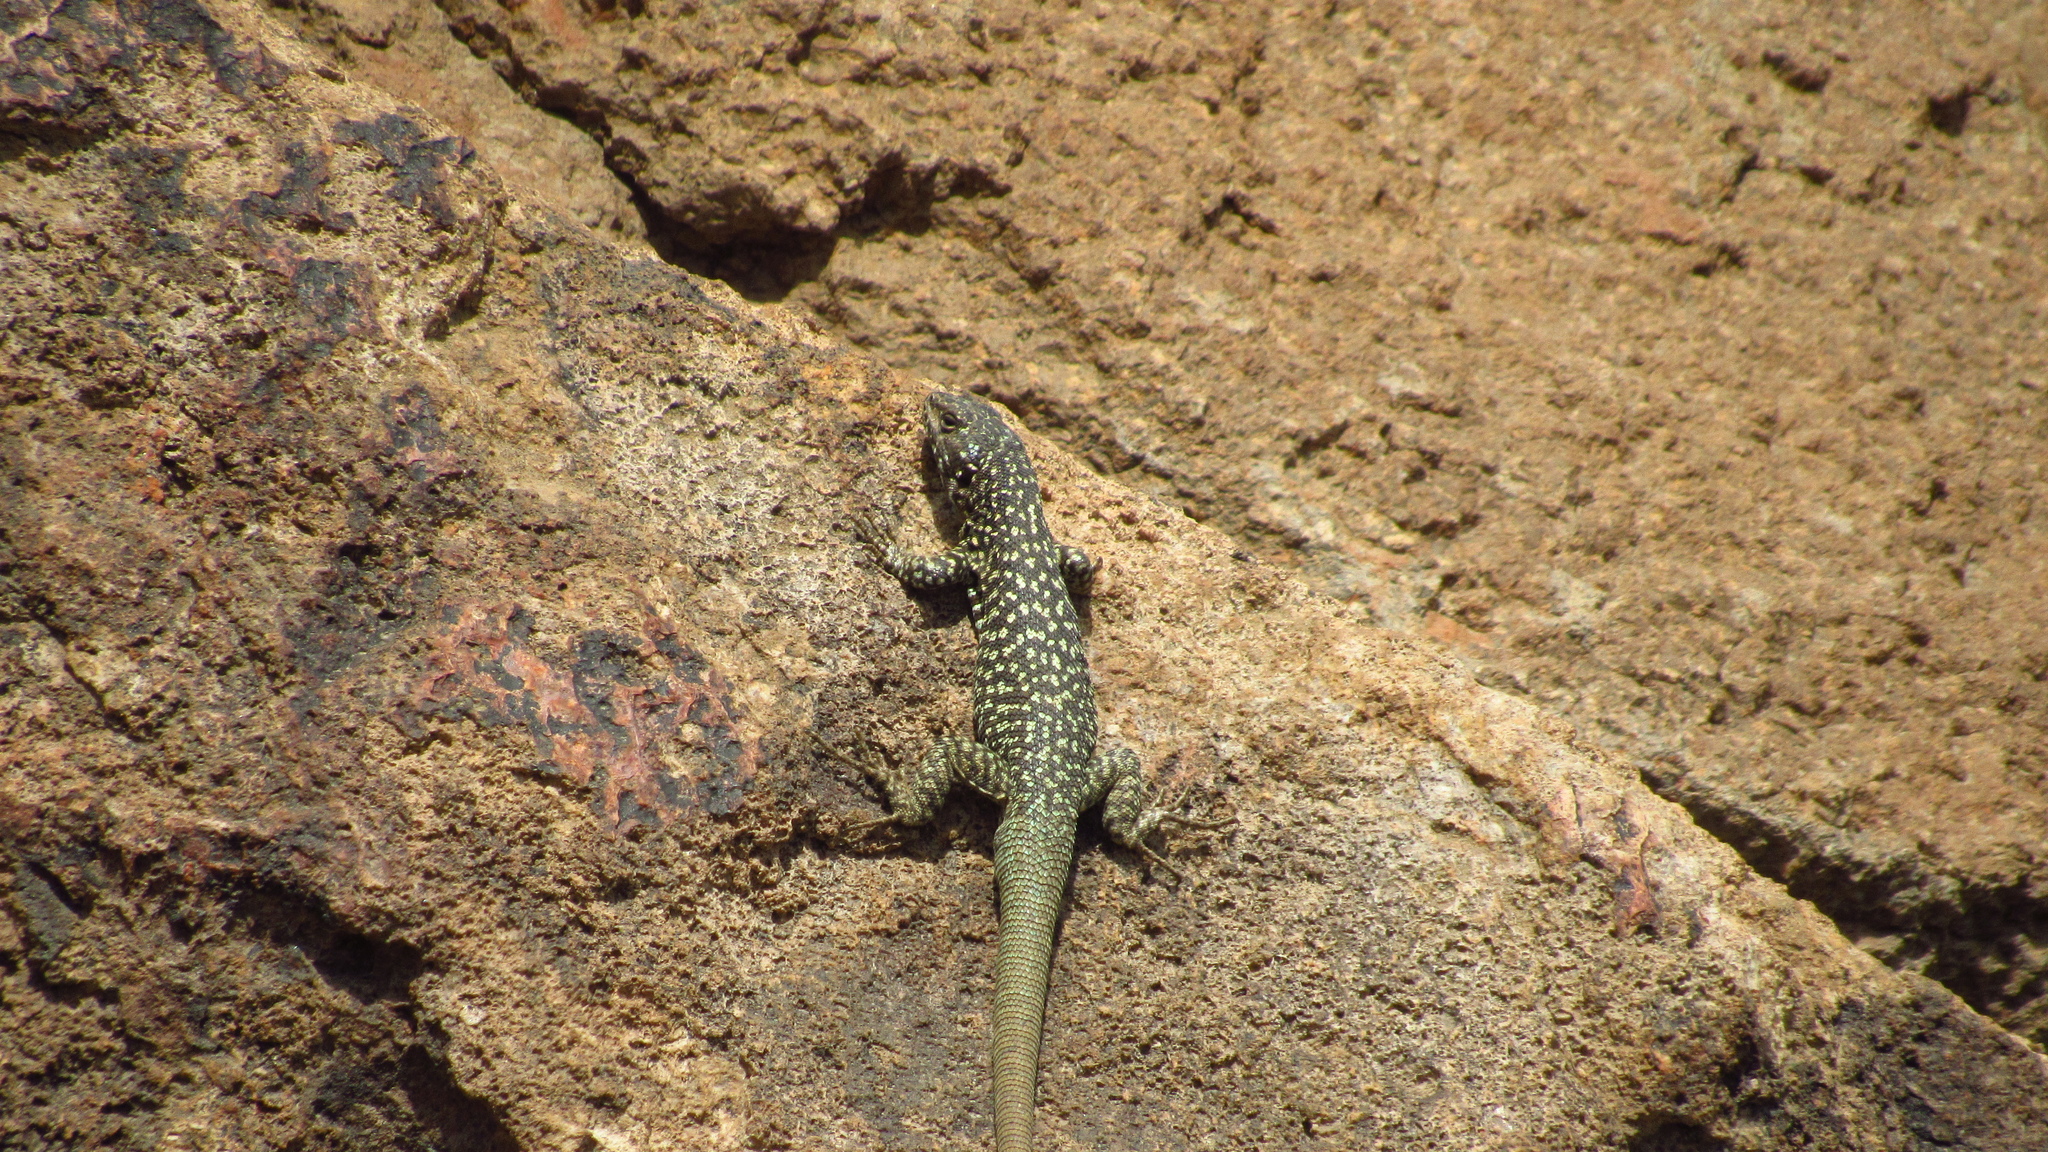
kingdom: Animalia
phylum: Chordata
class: Squamata
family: Liolaemidae
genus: Liolaemus
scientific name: Liolaemus nigroviridis
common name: Black-green tree iguana
